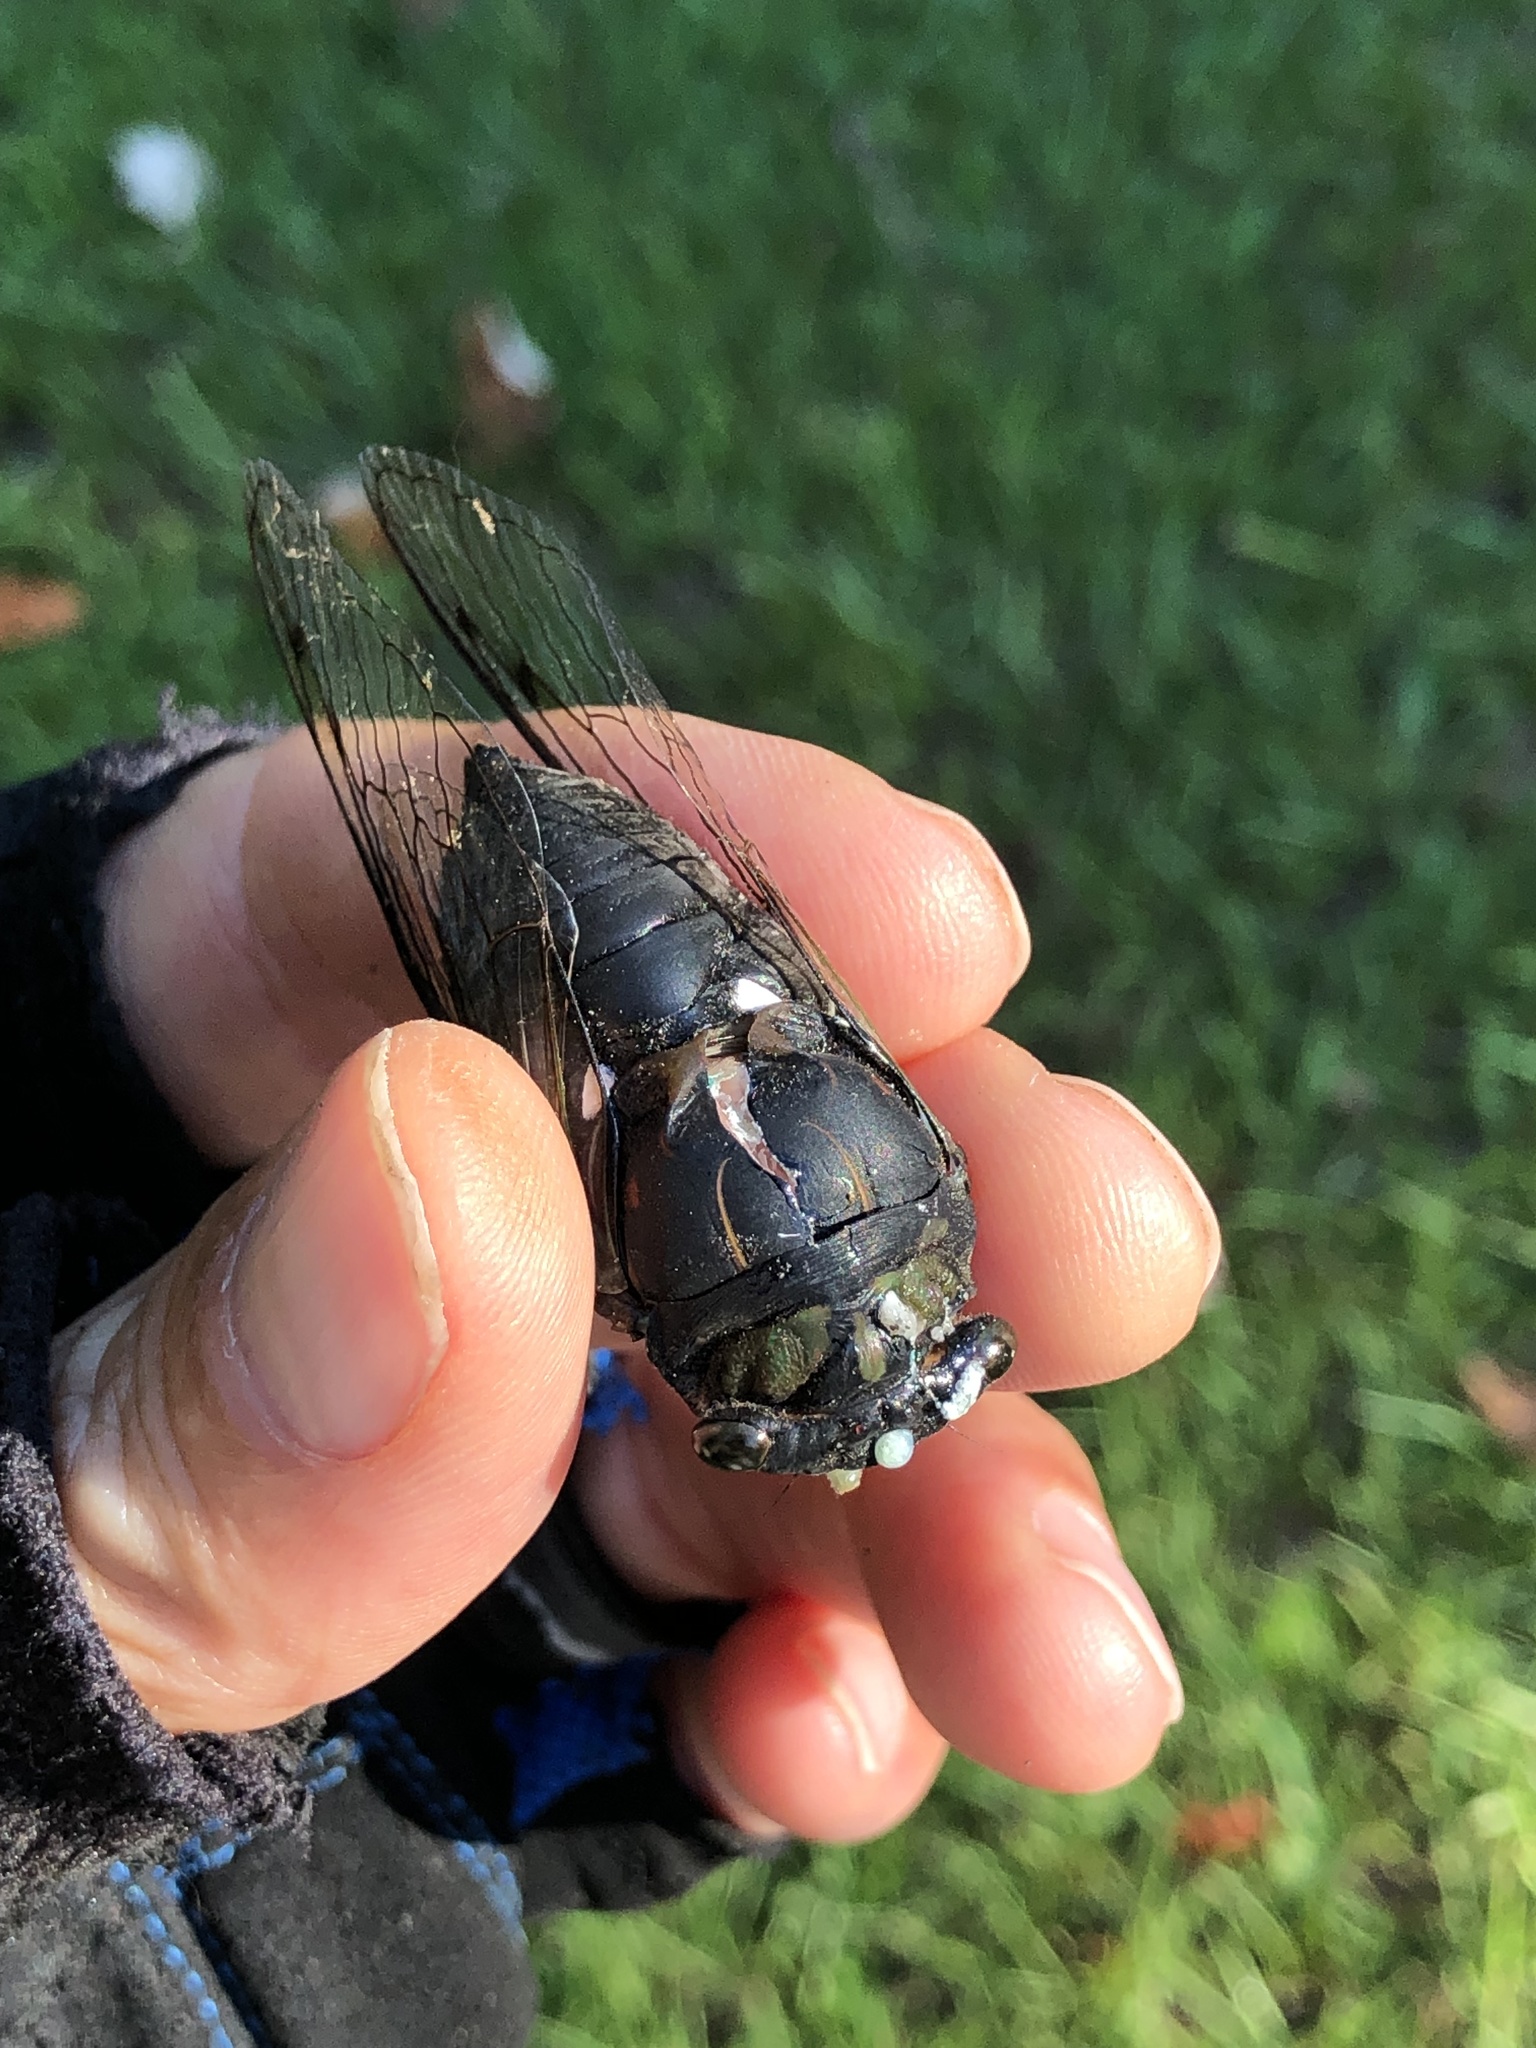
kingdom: Animalia
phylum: Arthropoda
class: Insecta
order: Hemiptera
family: Cicadidae
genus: Neotibicen
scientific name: Neotibicen tibicen
